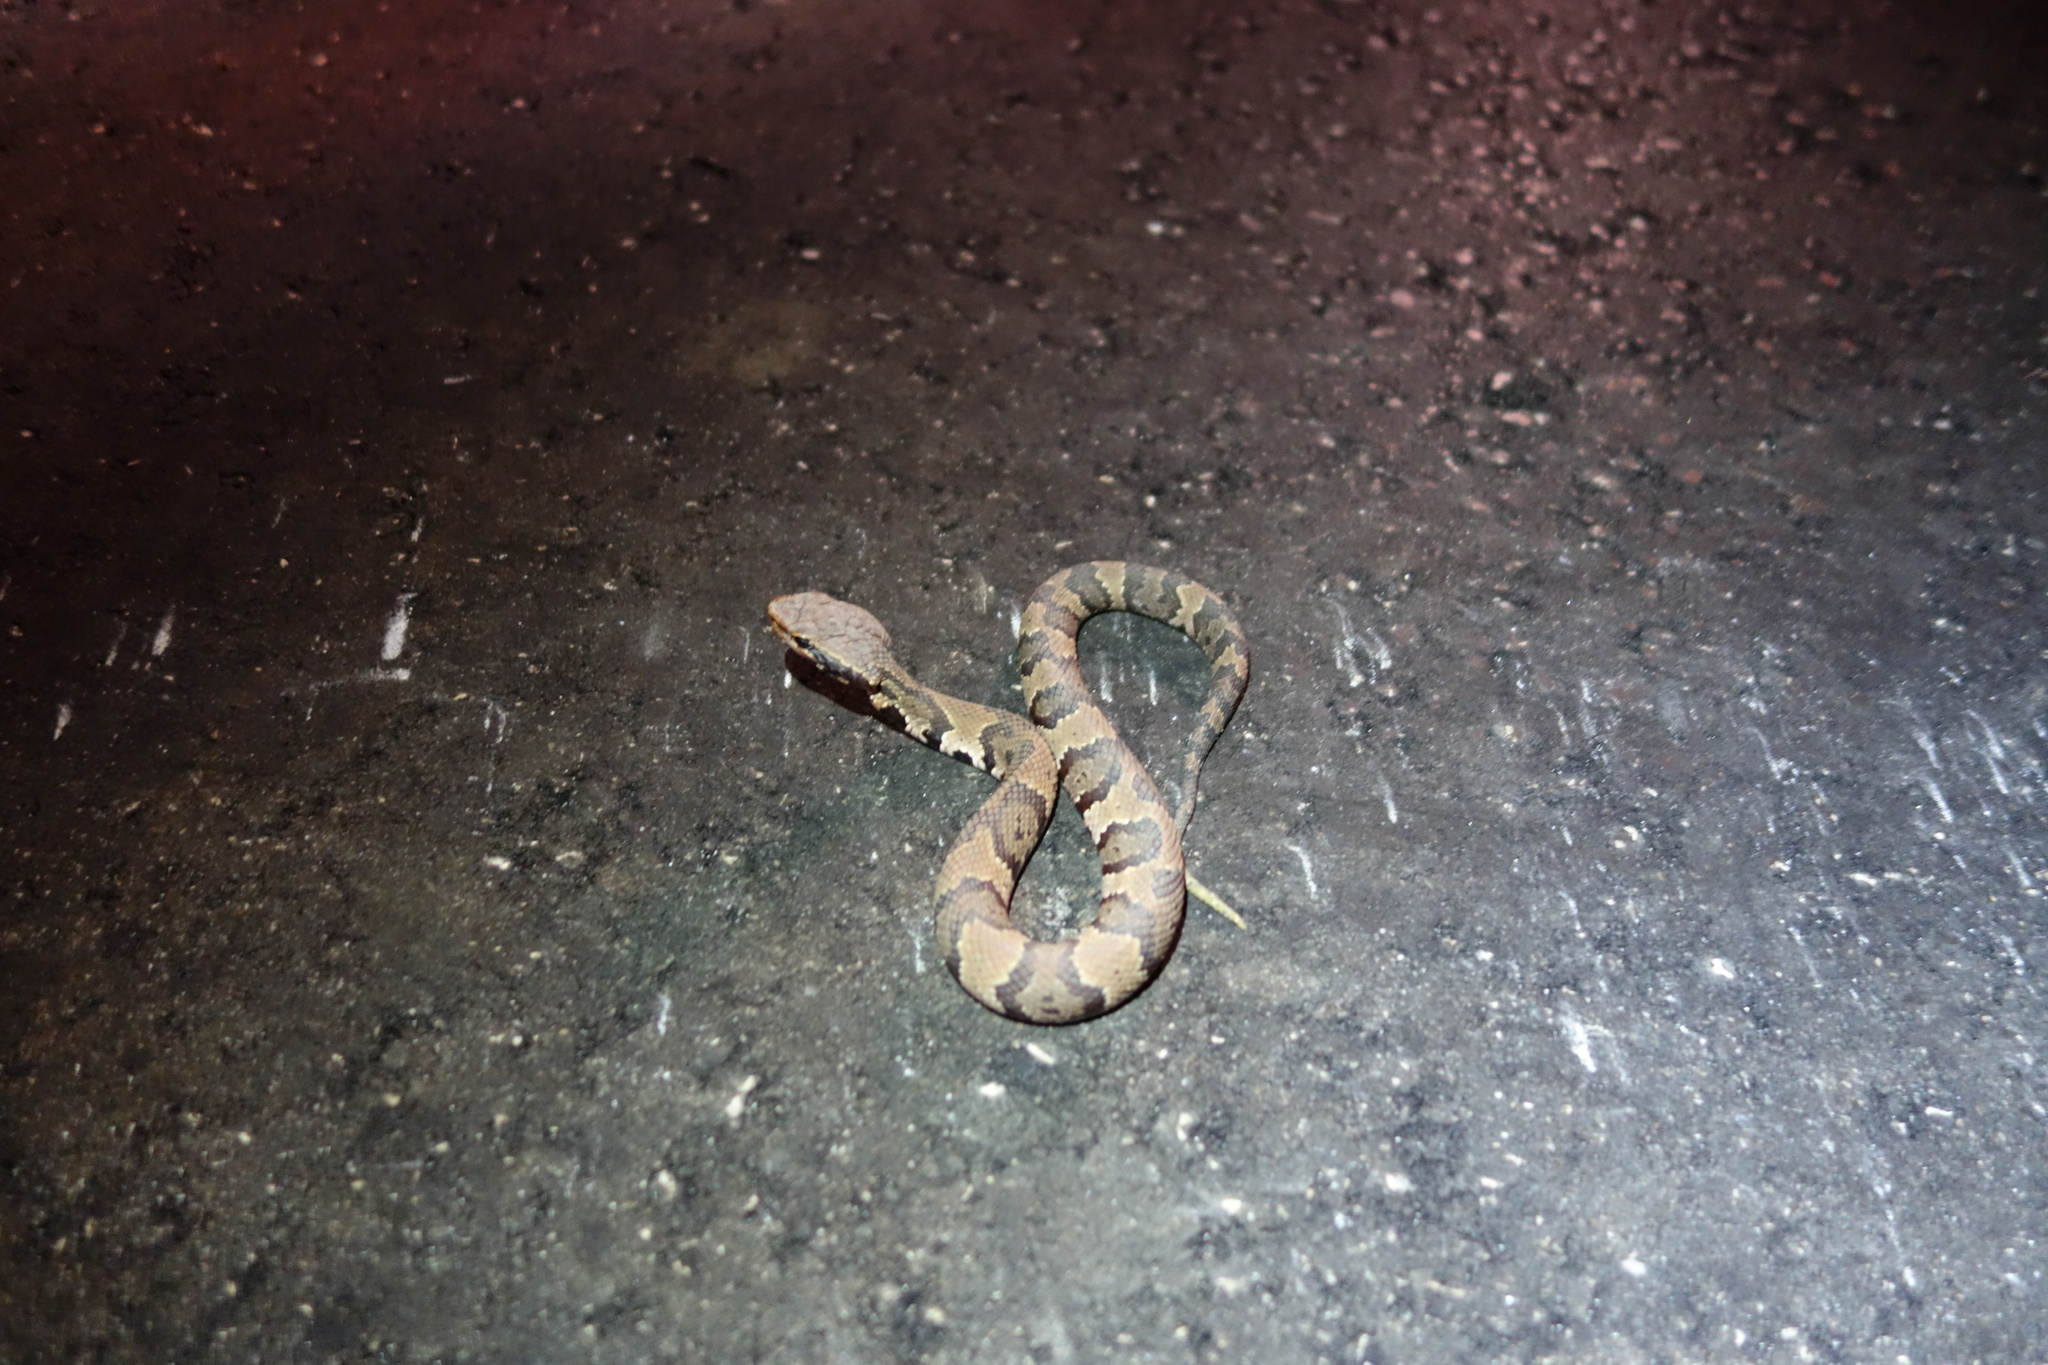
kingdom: Animalia
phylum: Chordata
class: Squamata
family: Viperidae
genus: Agkistrodon
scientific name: Agkistrodon conanti
